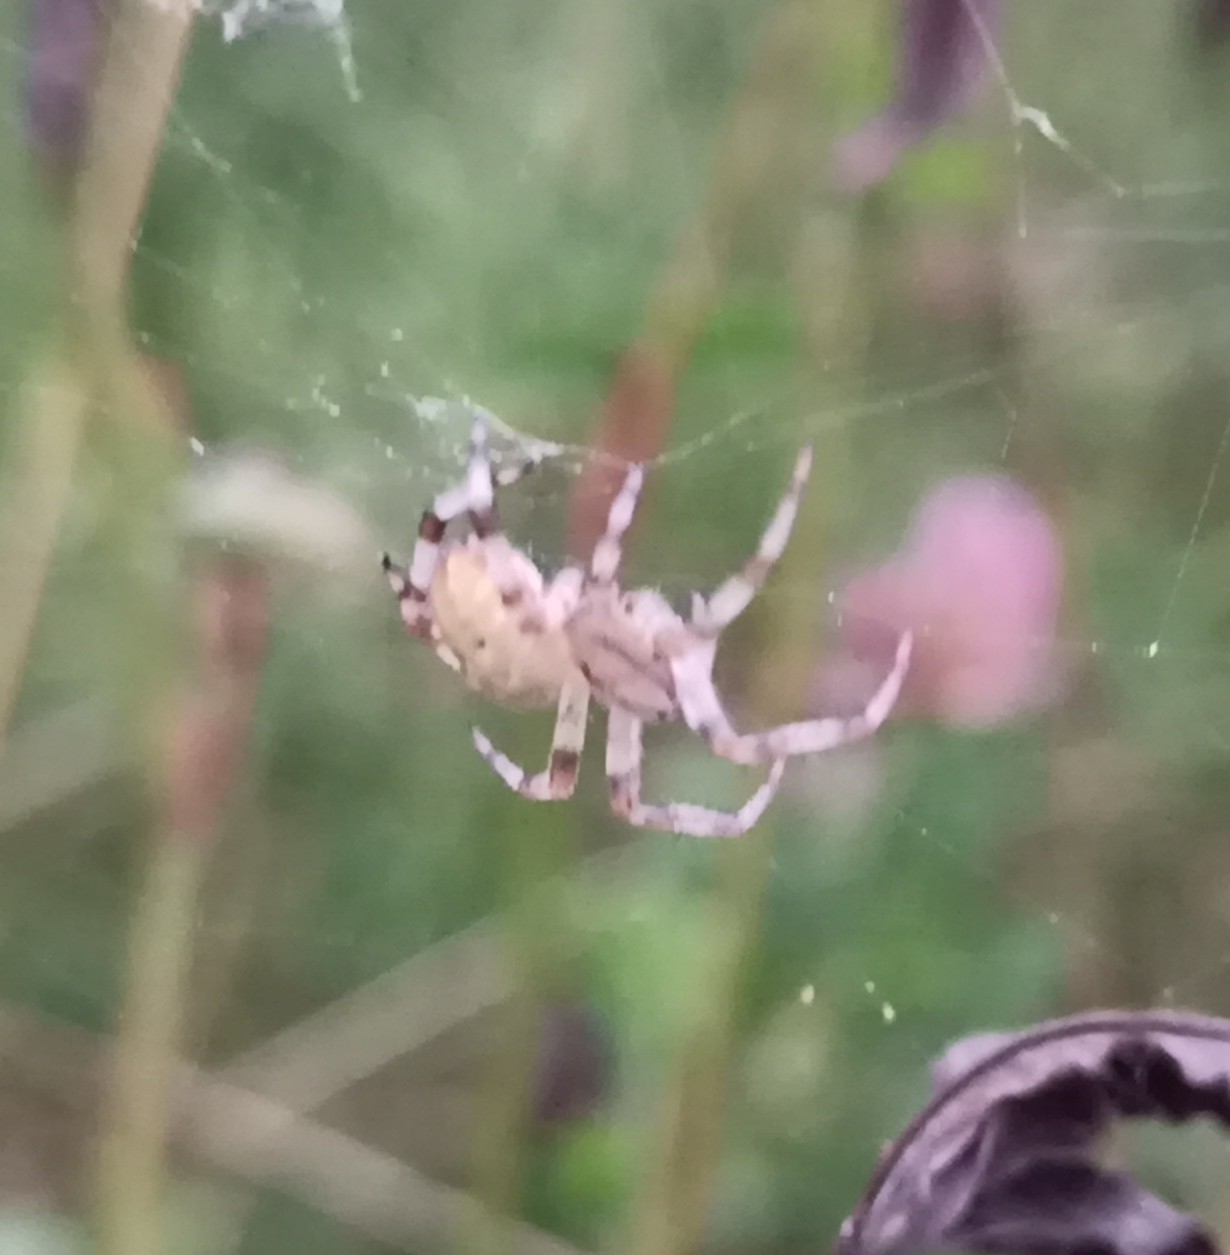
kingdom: Animalia
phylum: Arthropoda
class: Arachnida
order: Araneae
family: Araneidae
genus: Araneus
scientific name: Araneus quadratus
